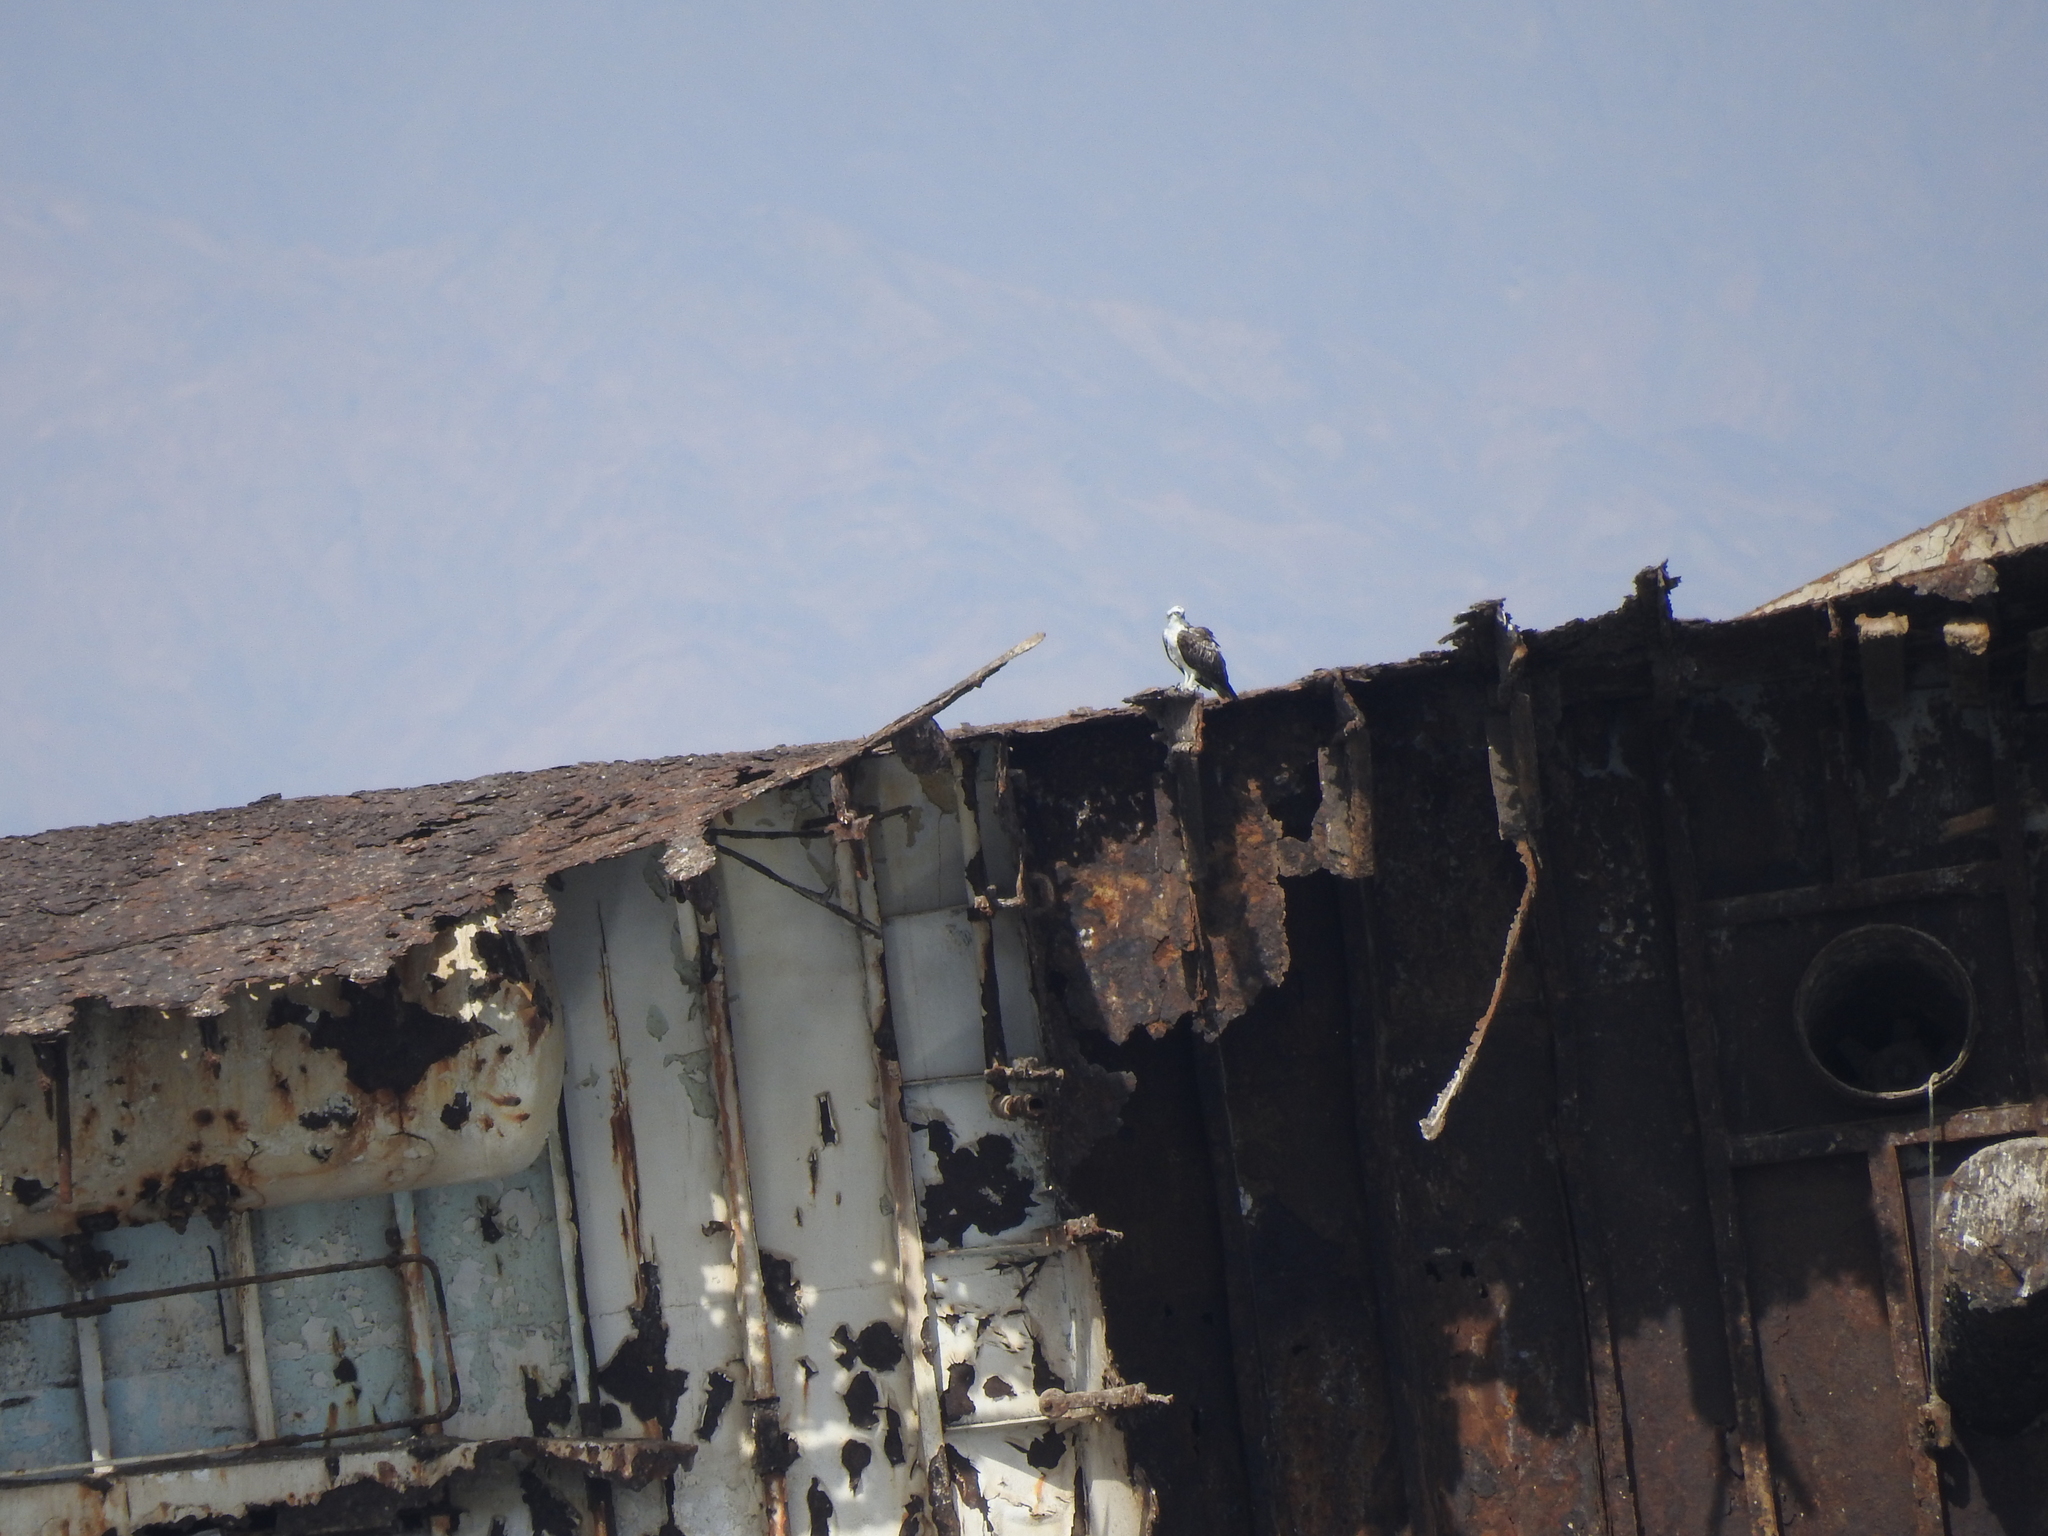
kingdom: Animalia
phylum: Chordata
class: Aves
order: Accipitriformes
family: Pandionidae
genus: Pandion
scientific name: Pandion haliaetus
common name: Osprey
